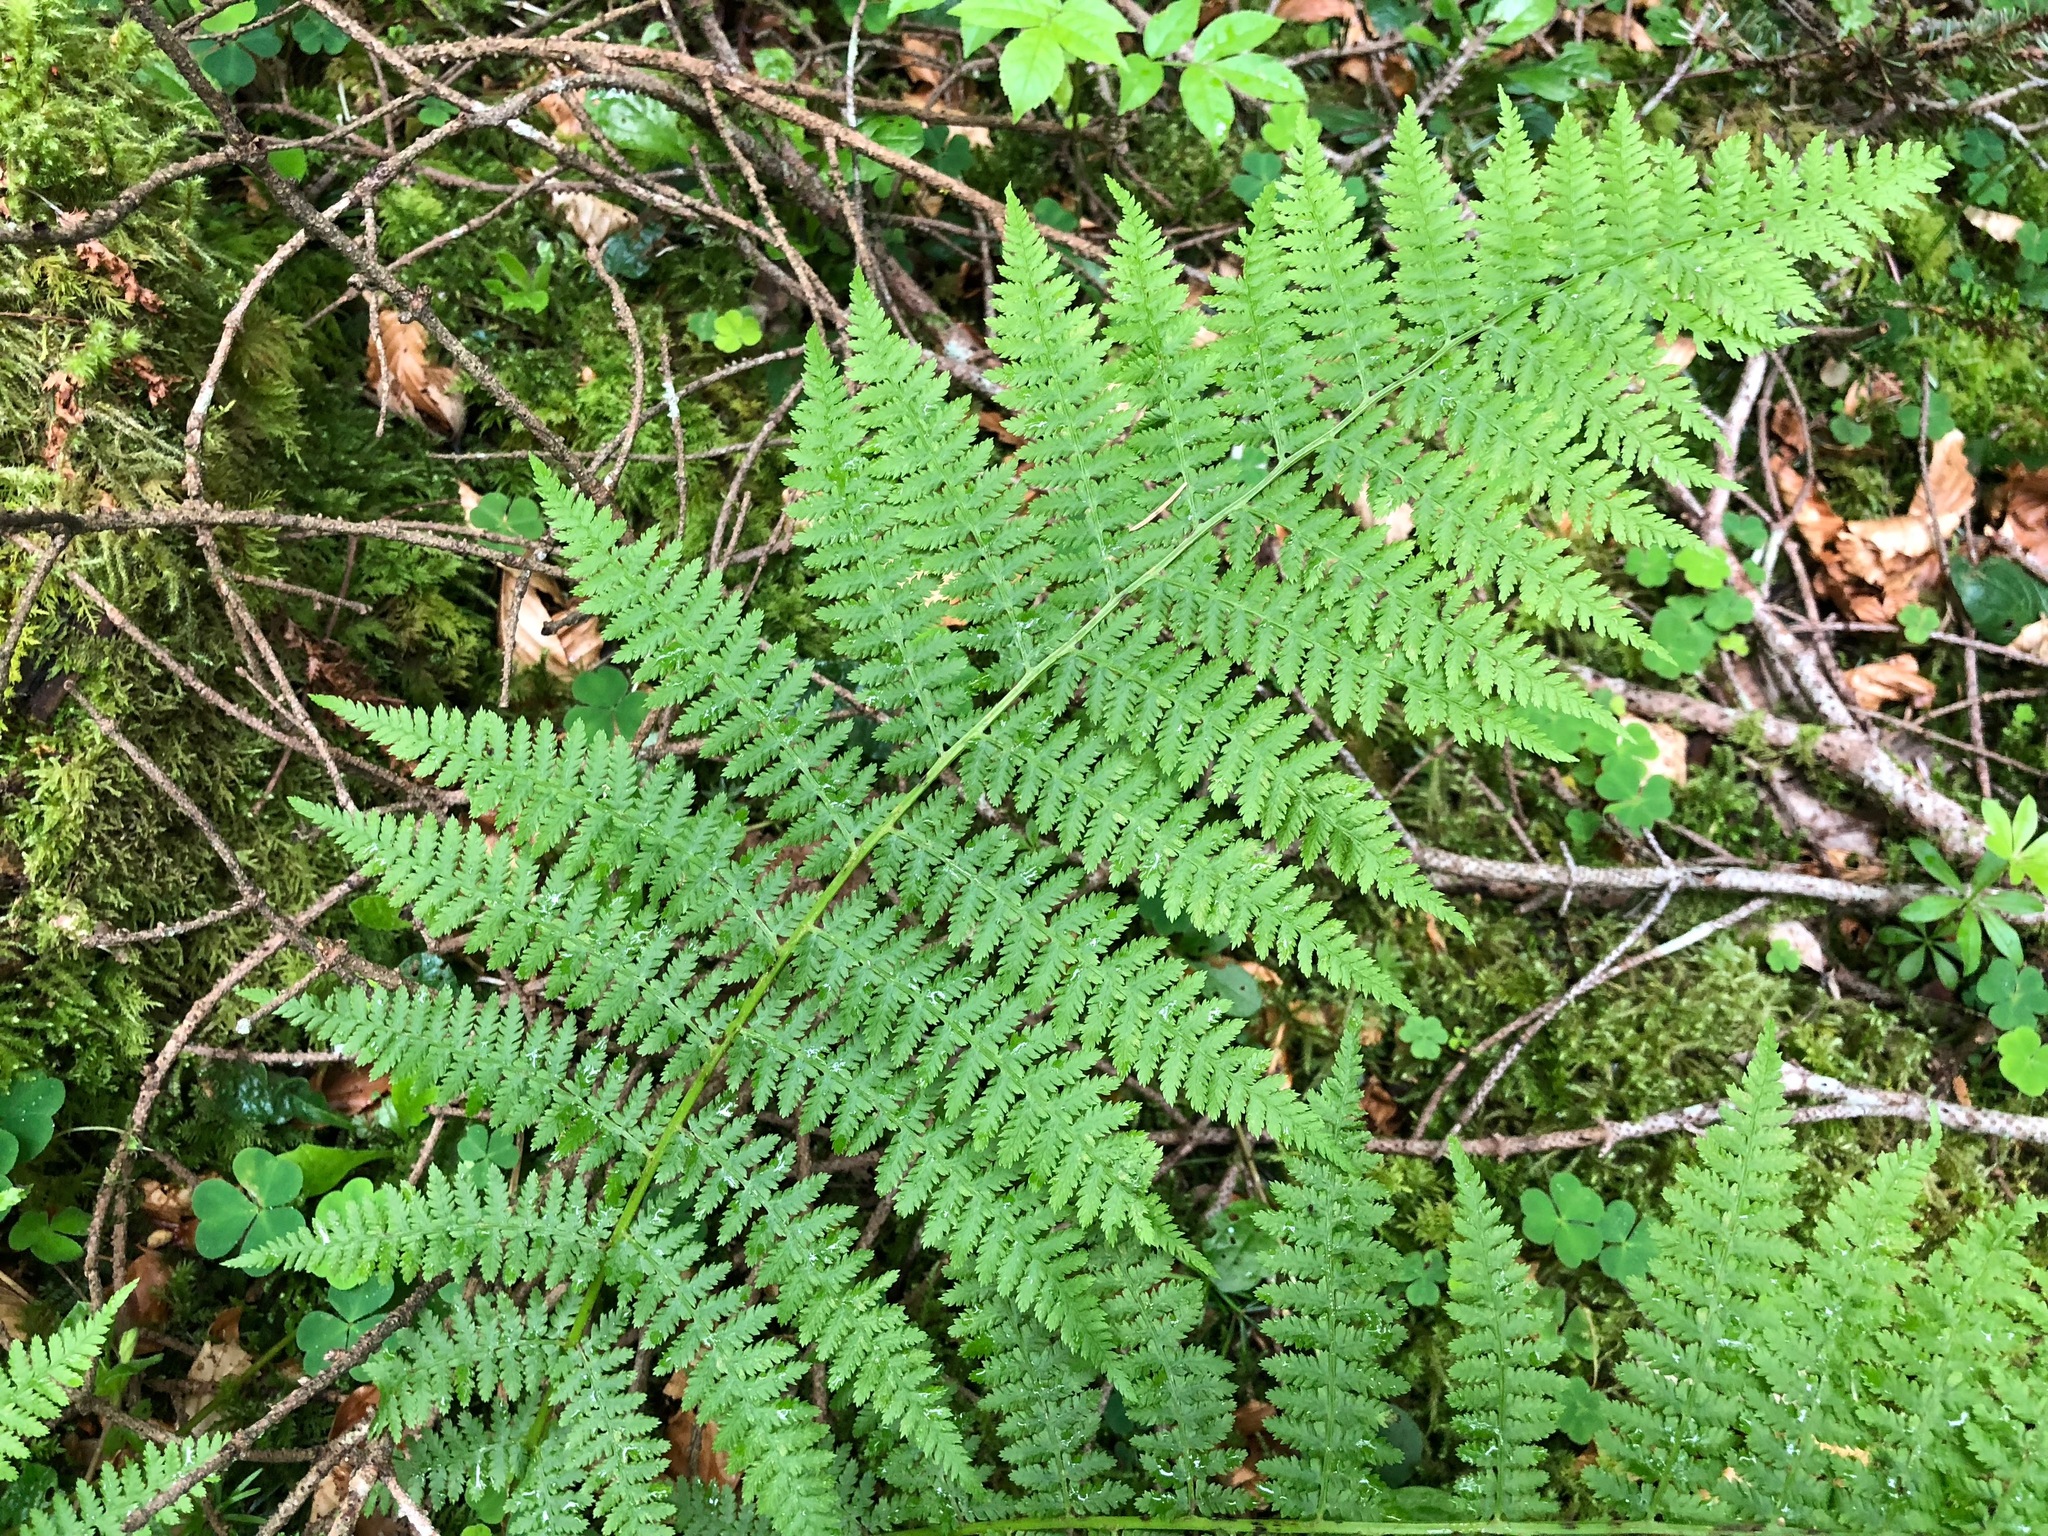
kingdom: Plantae
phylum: Tracheophyta
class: Polypodiopsida
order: Polypodiales
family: Athyriaceae
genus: Athyrium
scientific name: Athyrium filix-femina
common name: Lady fern
